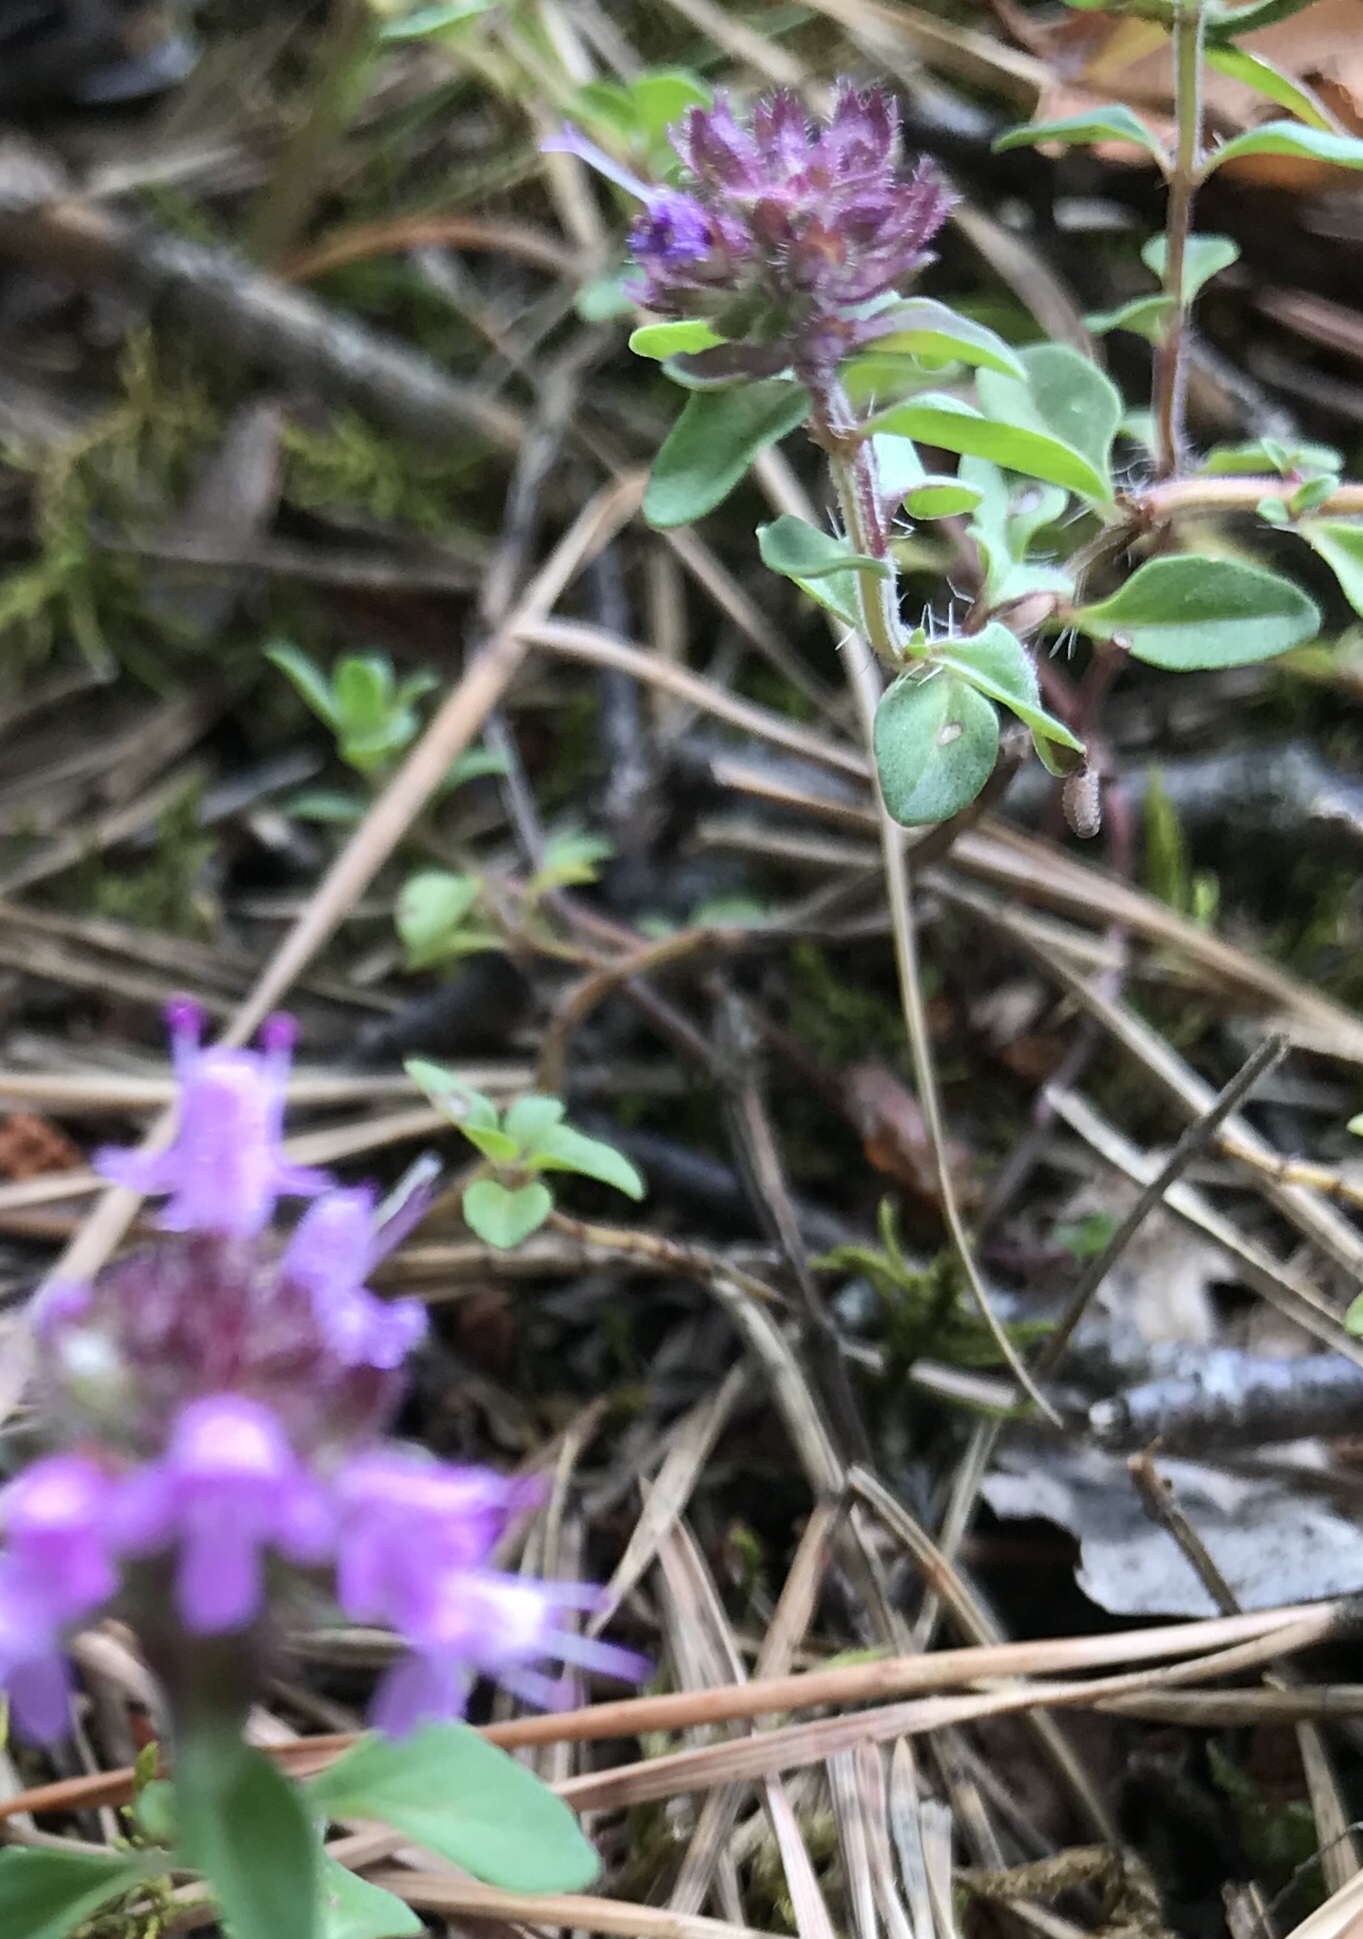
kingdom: Plantae
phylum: Tracheophyta
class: Magnoliopsida
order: Lamiales
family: Lamiaceae
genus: Thymus
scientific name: Thymus pulegioides
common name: Large thyme
